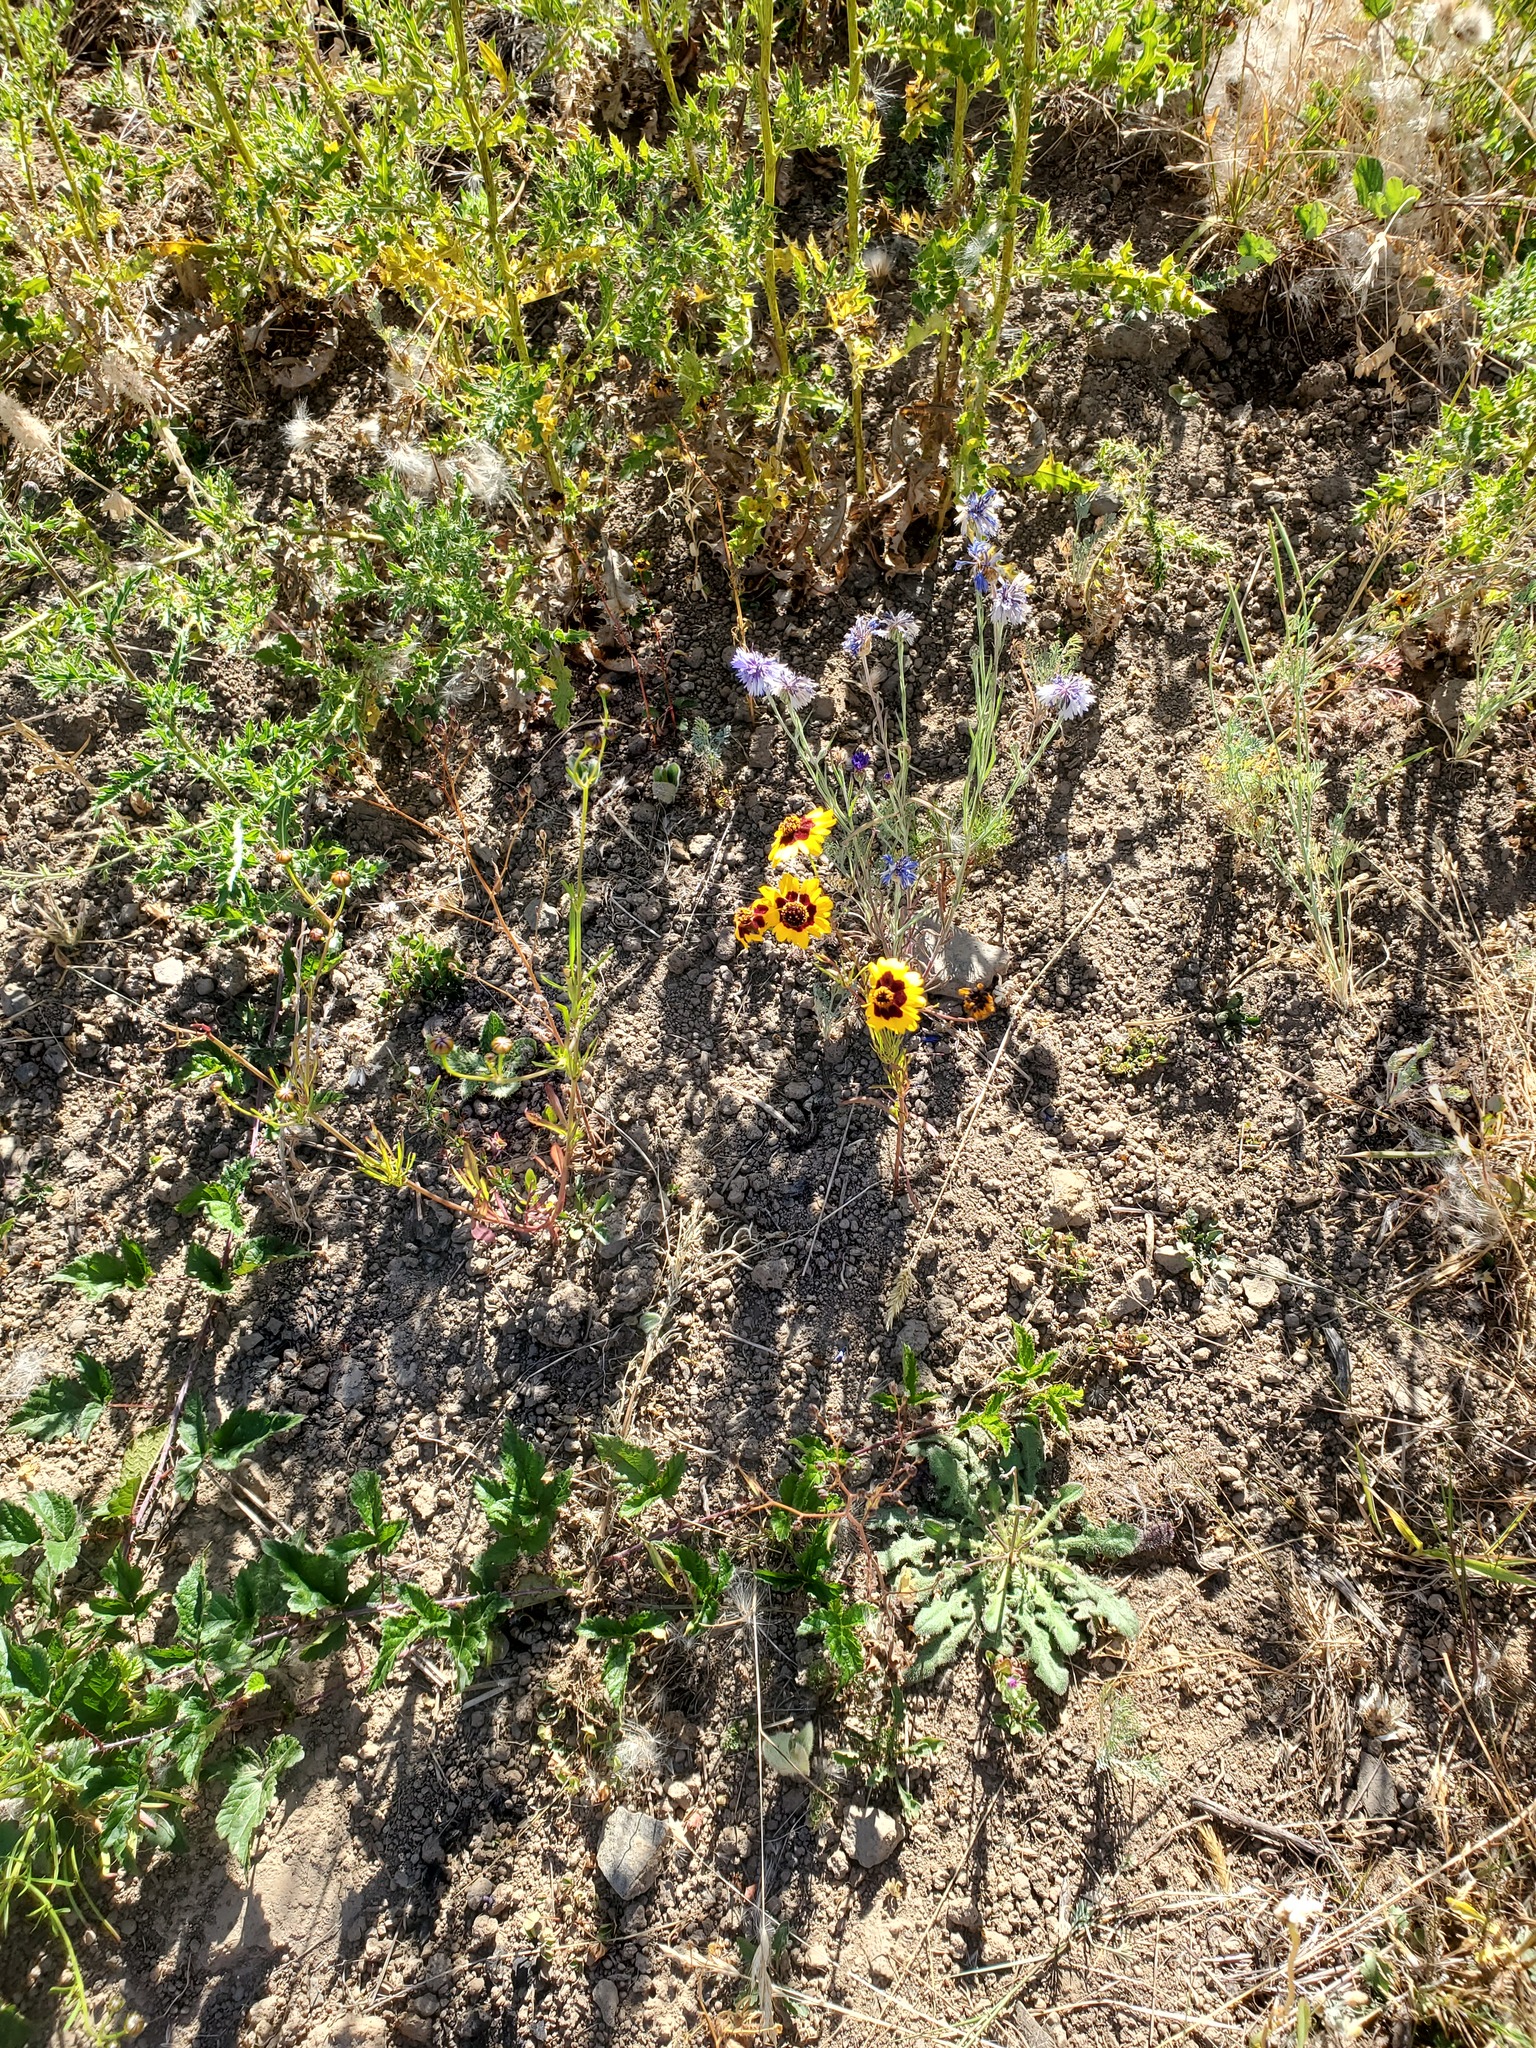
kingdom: Plantae
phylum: Tracheophyta
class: Magnoliopsida
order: Asterales
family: Asteraceae
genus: Coreopsis
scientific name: Coreopsis tinctoria
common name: Garden tickseed
